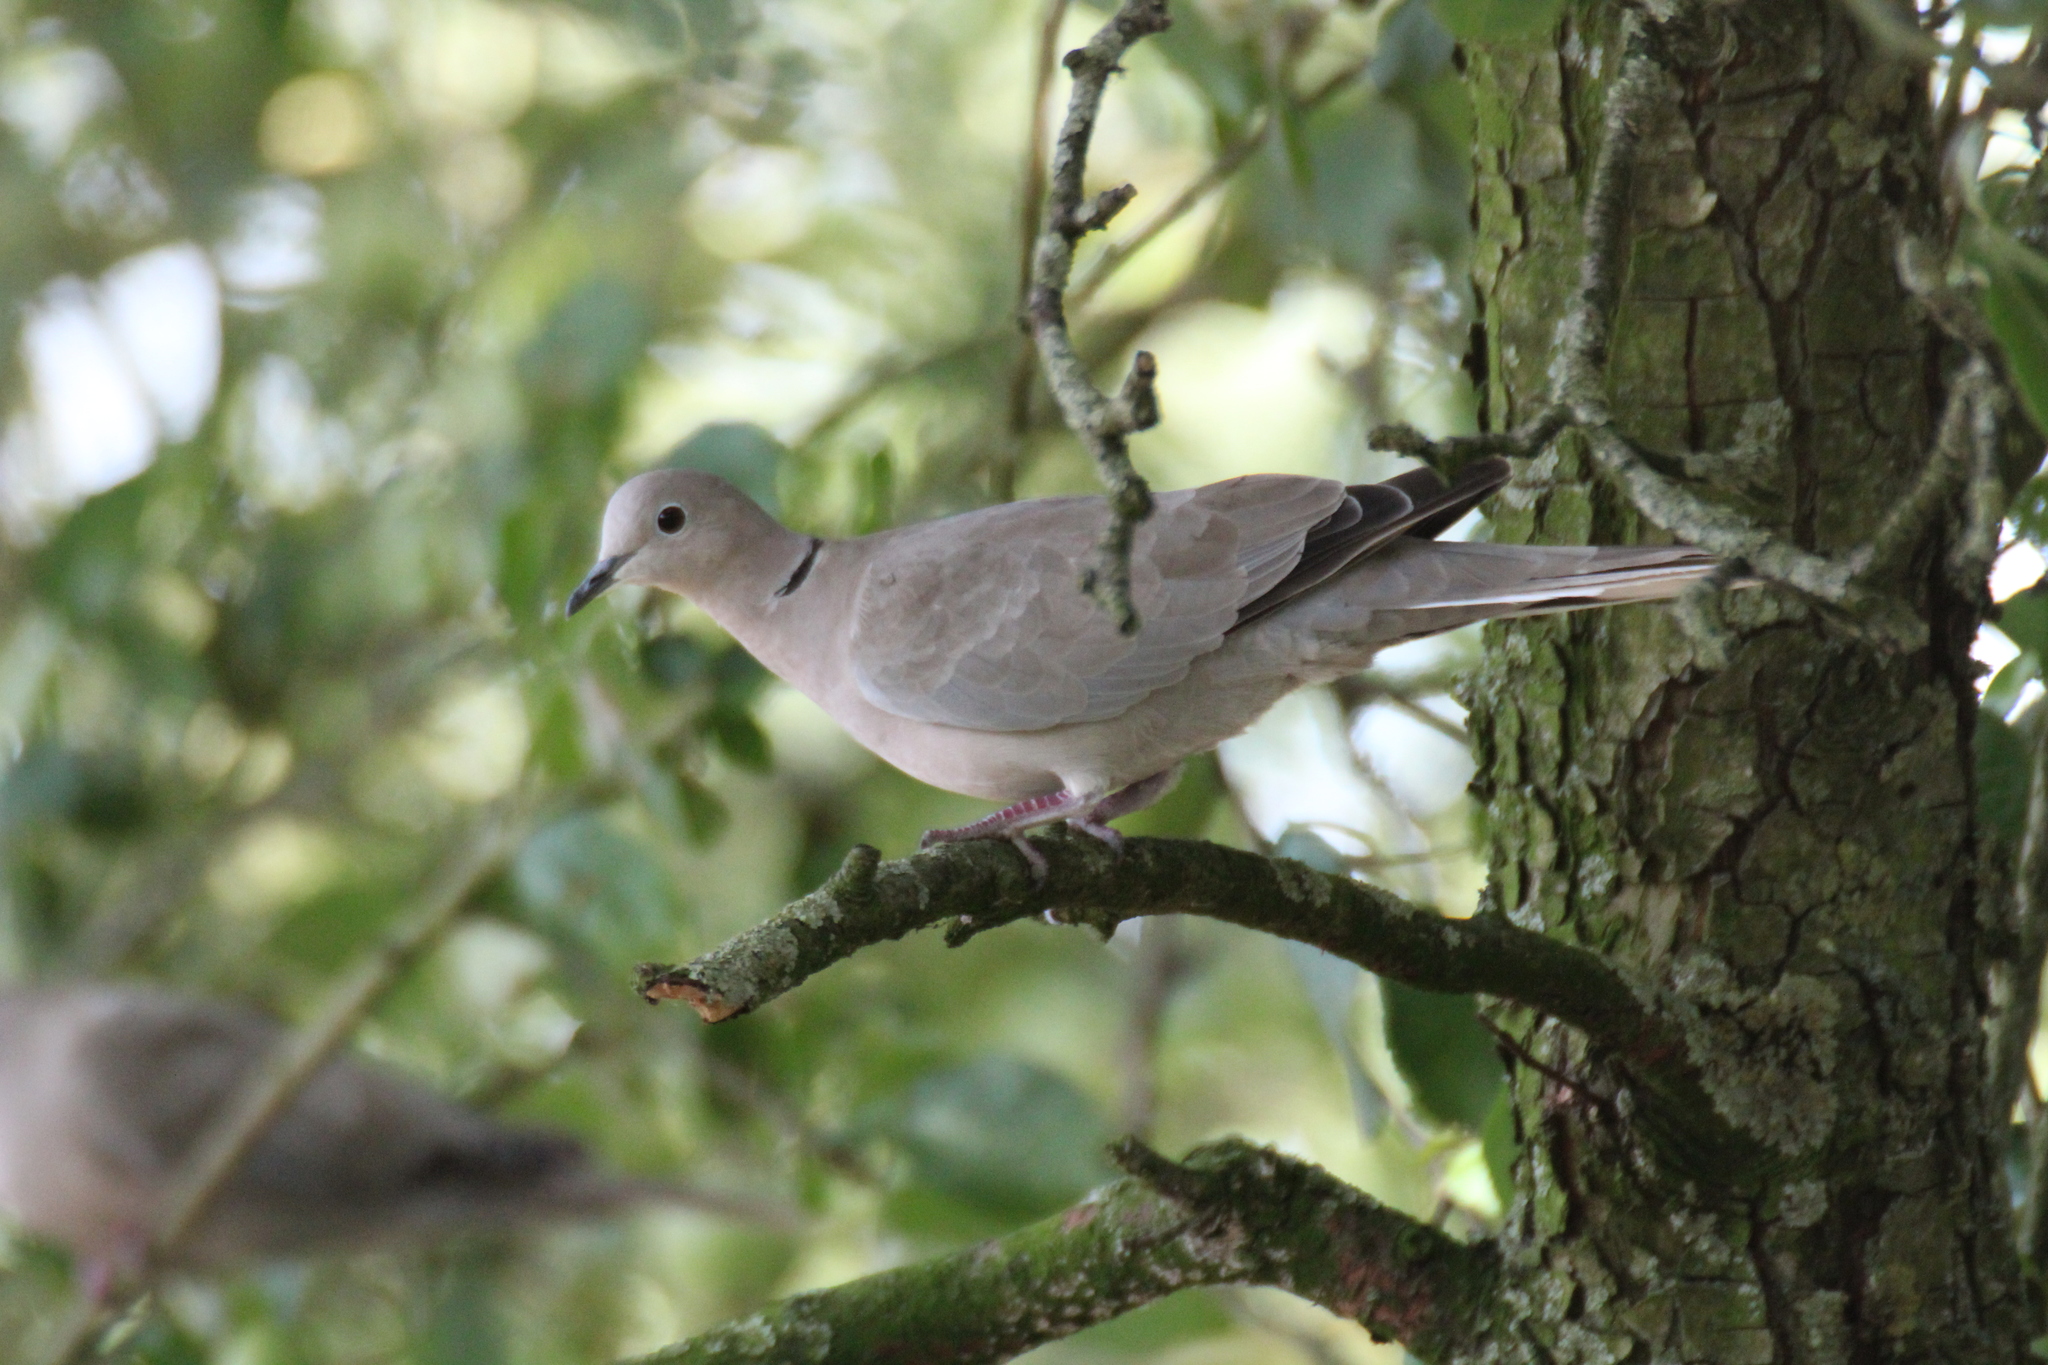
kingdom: Animalia
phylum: Chordata
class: Aves
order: Columbiformes
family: Columbidae
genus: Streptopelia
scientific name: Streptopelia decaocto
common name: Eurasian collared dove
